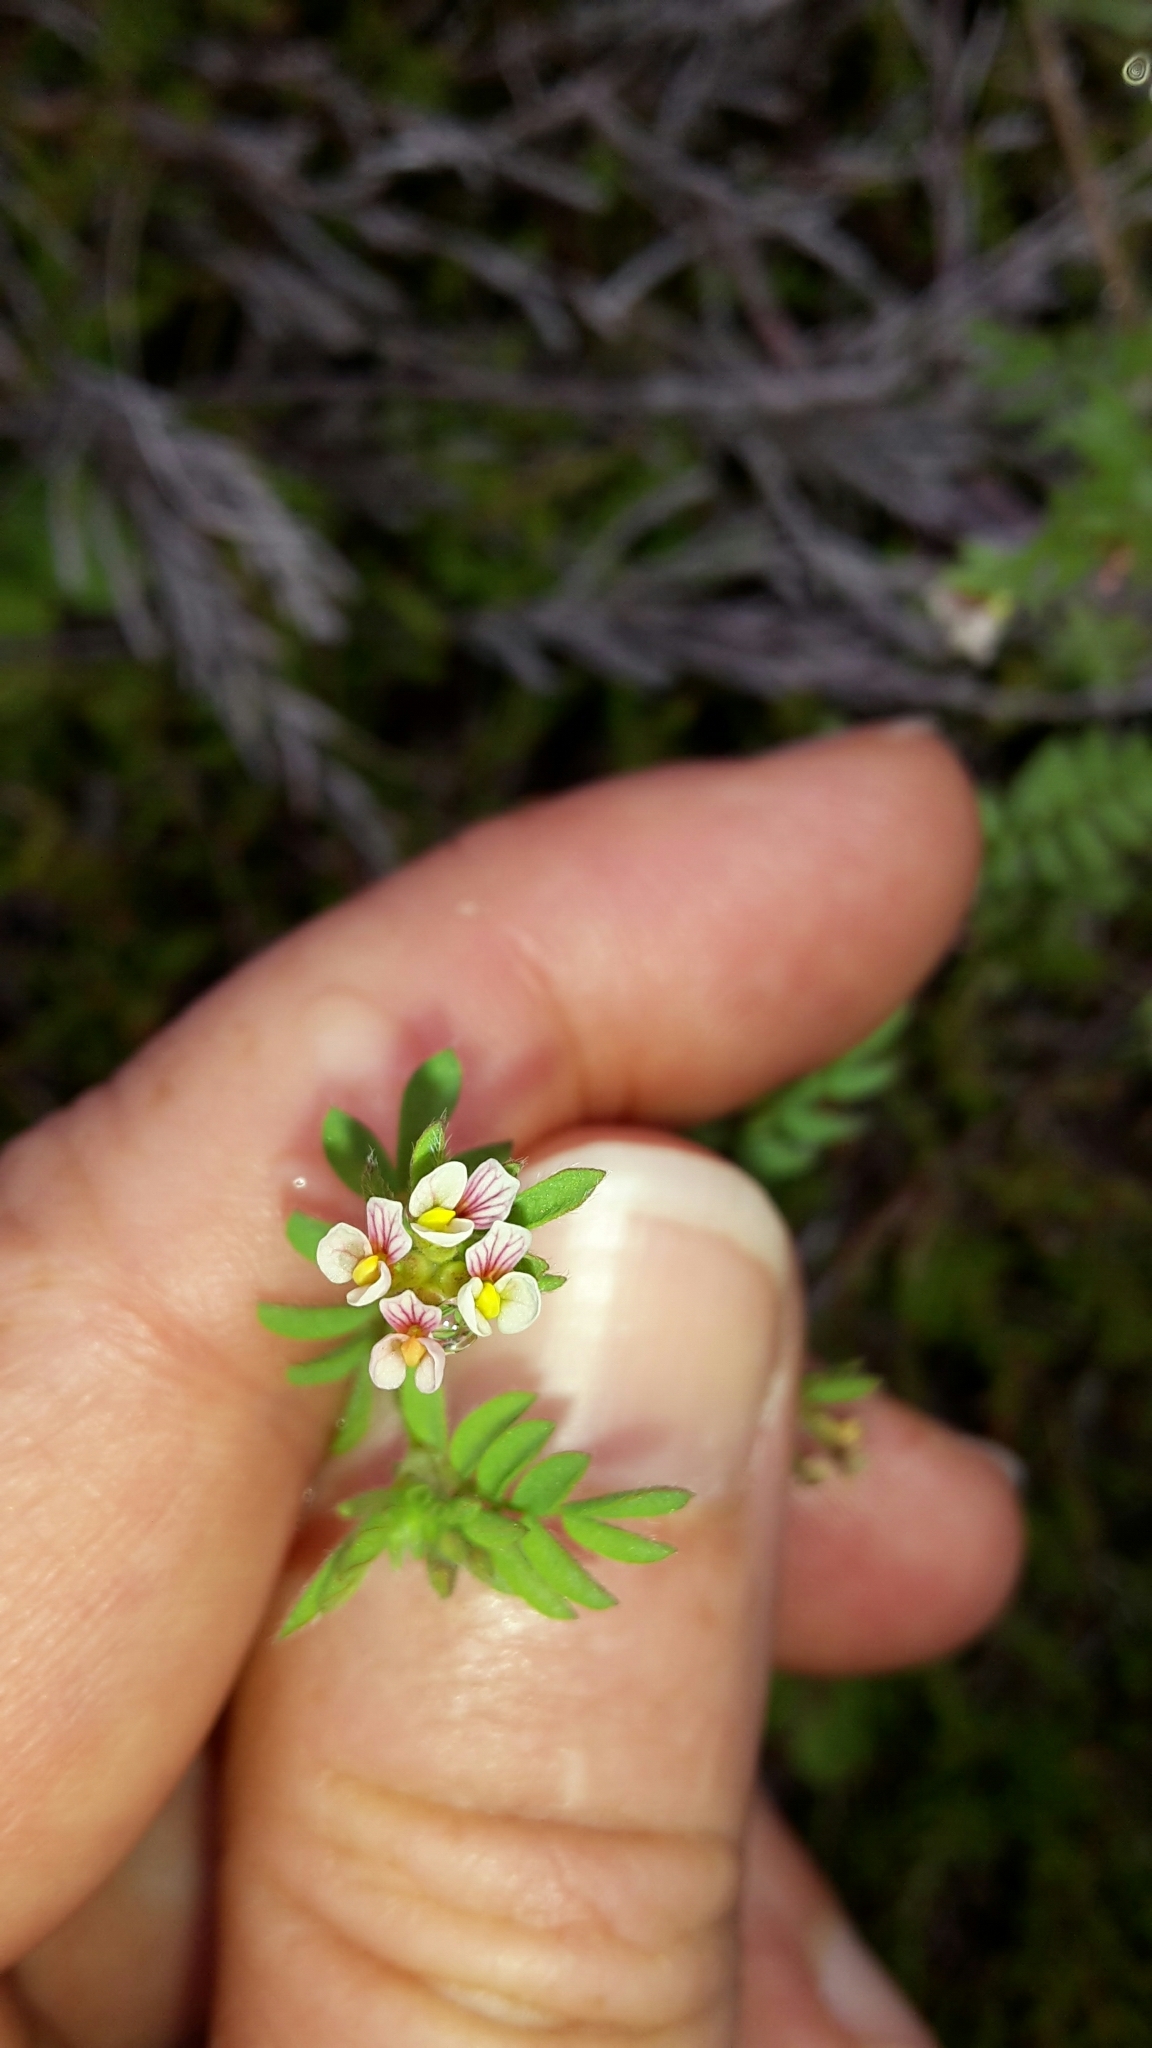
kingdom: Plantae
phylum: Tracheophyta
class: Magnoliopsida
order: Fabales
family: Fabaceae
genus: Ornithopus
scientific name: Ornithopus perpusillus
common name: Bird's-foot
